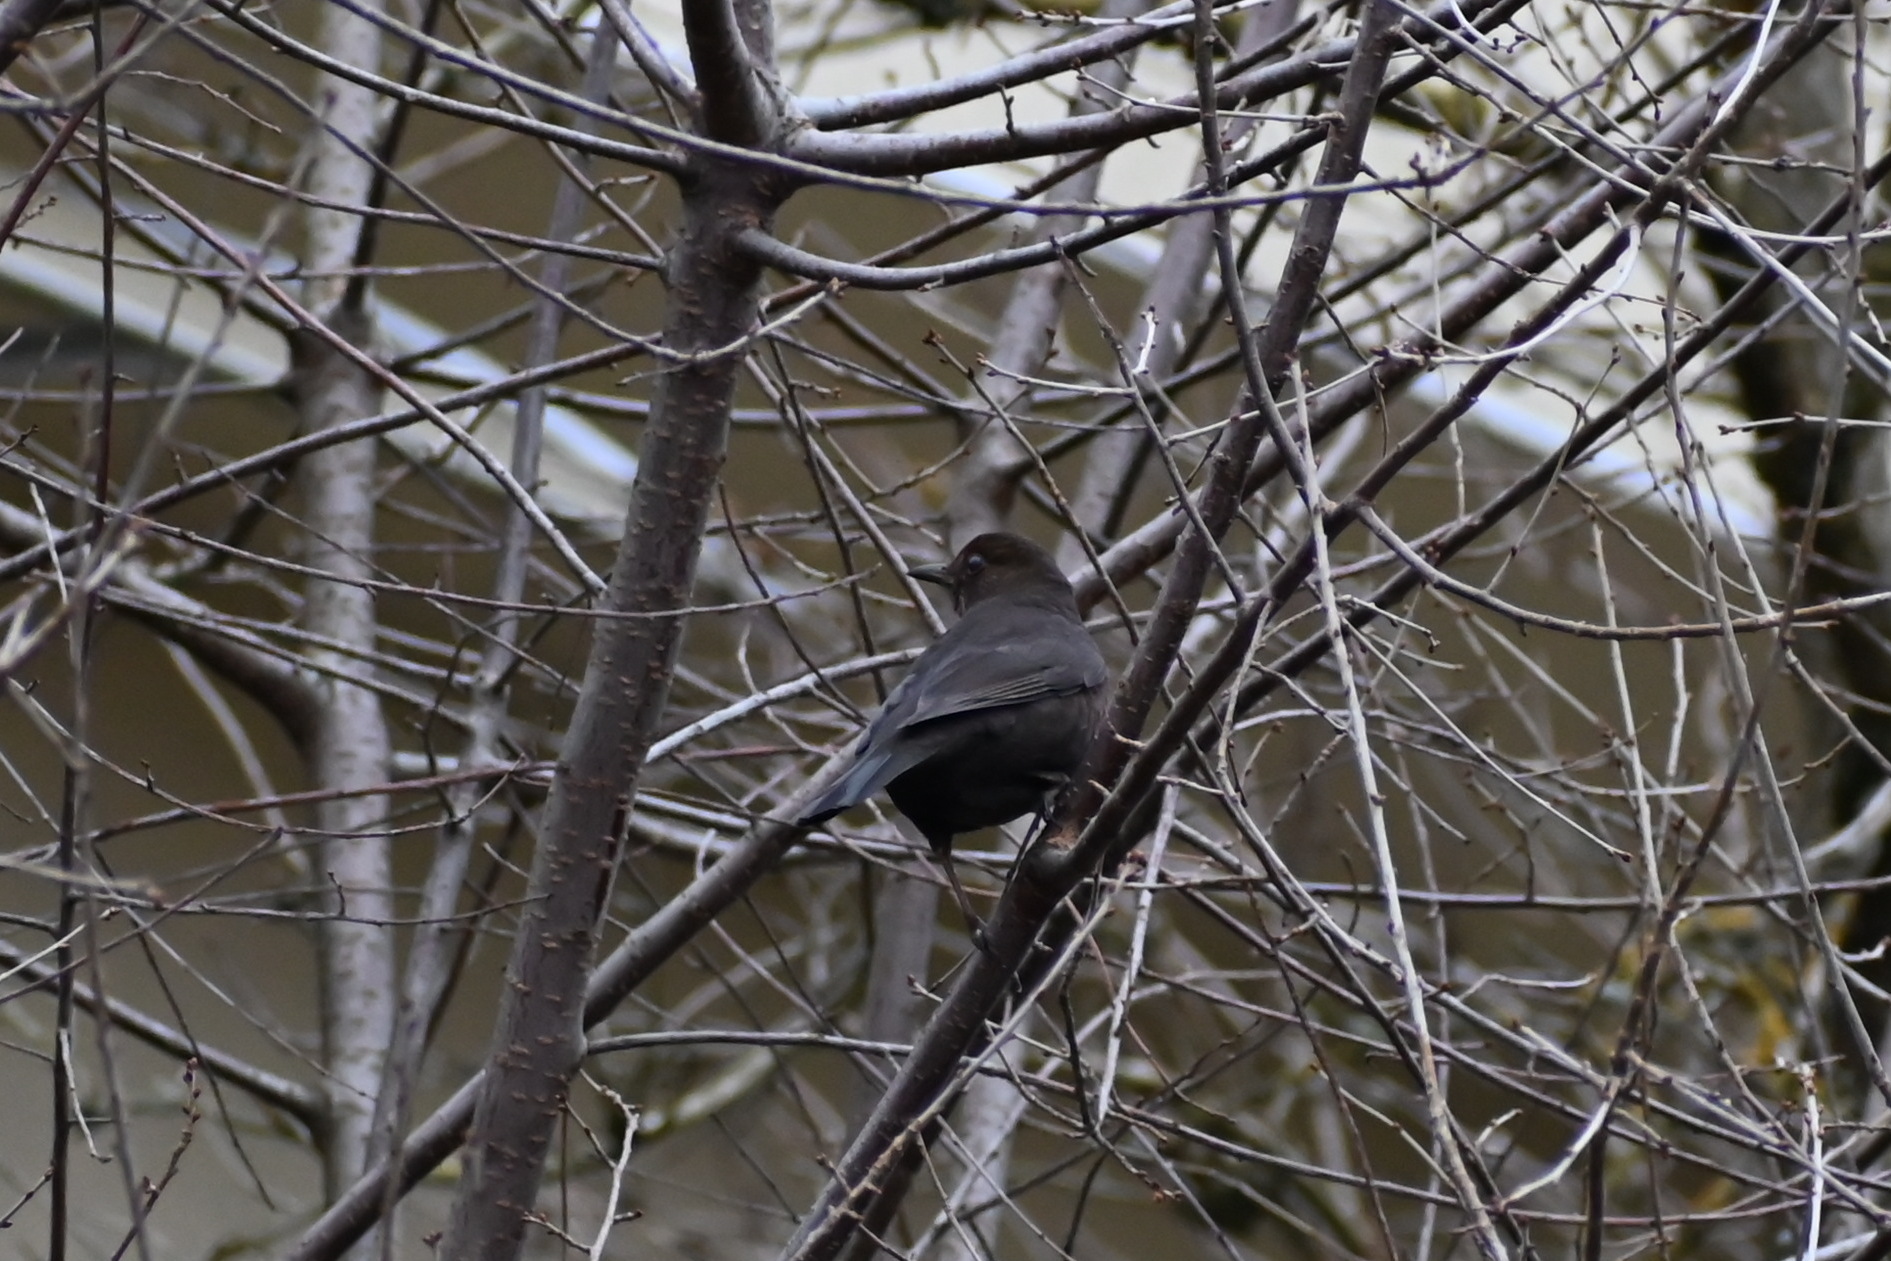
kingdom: Animalia
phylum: Chordata
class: Aves
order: Passeriformes
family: Turdidae
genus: Turdus
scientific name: Turdus merula
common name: Common blackbird
